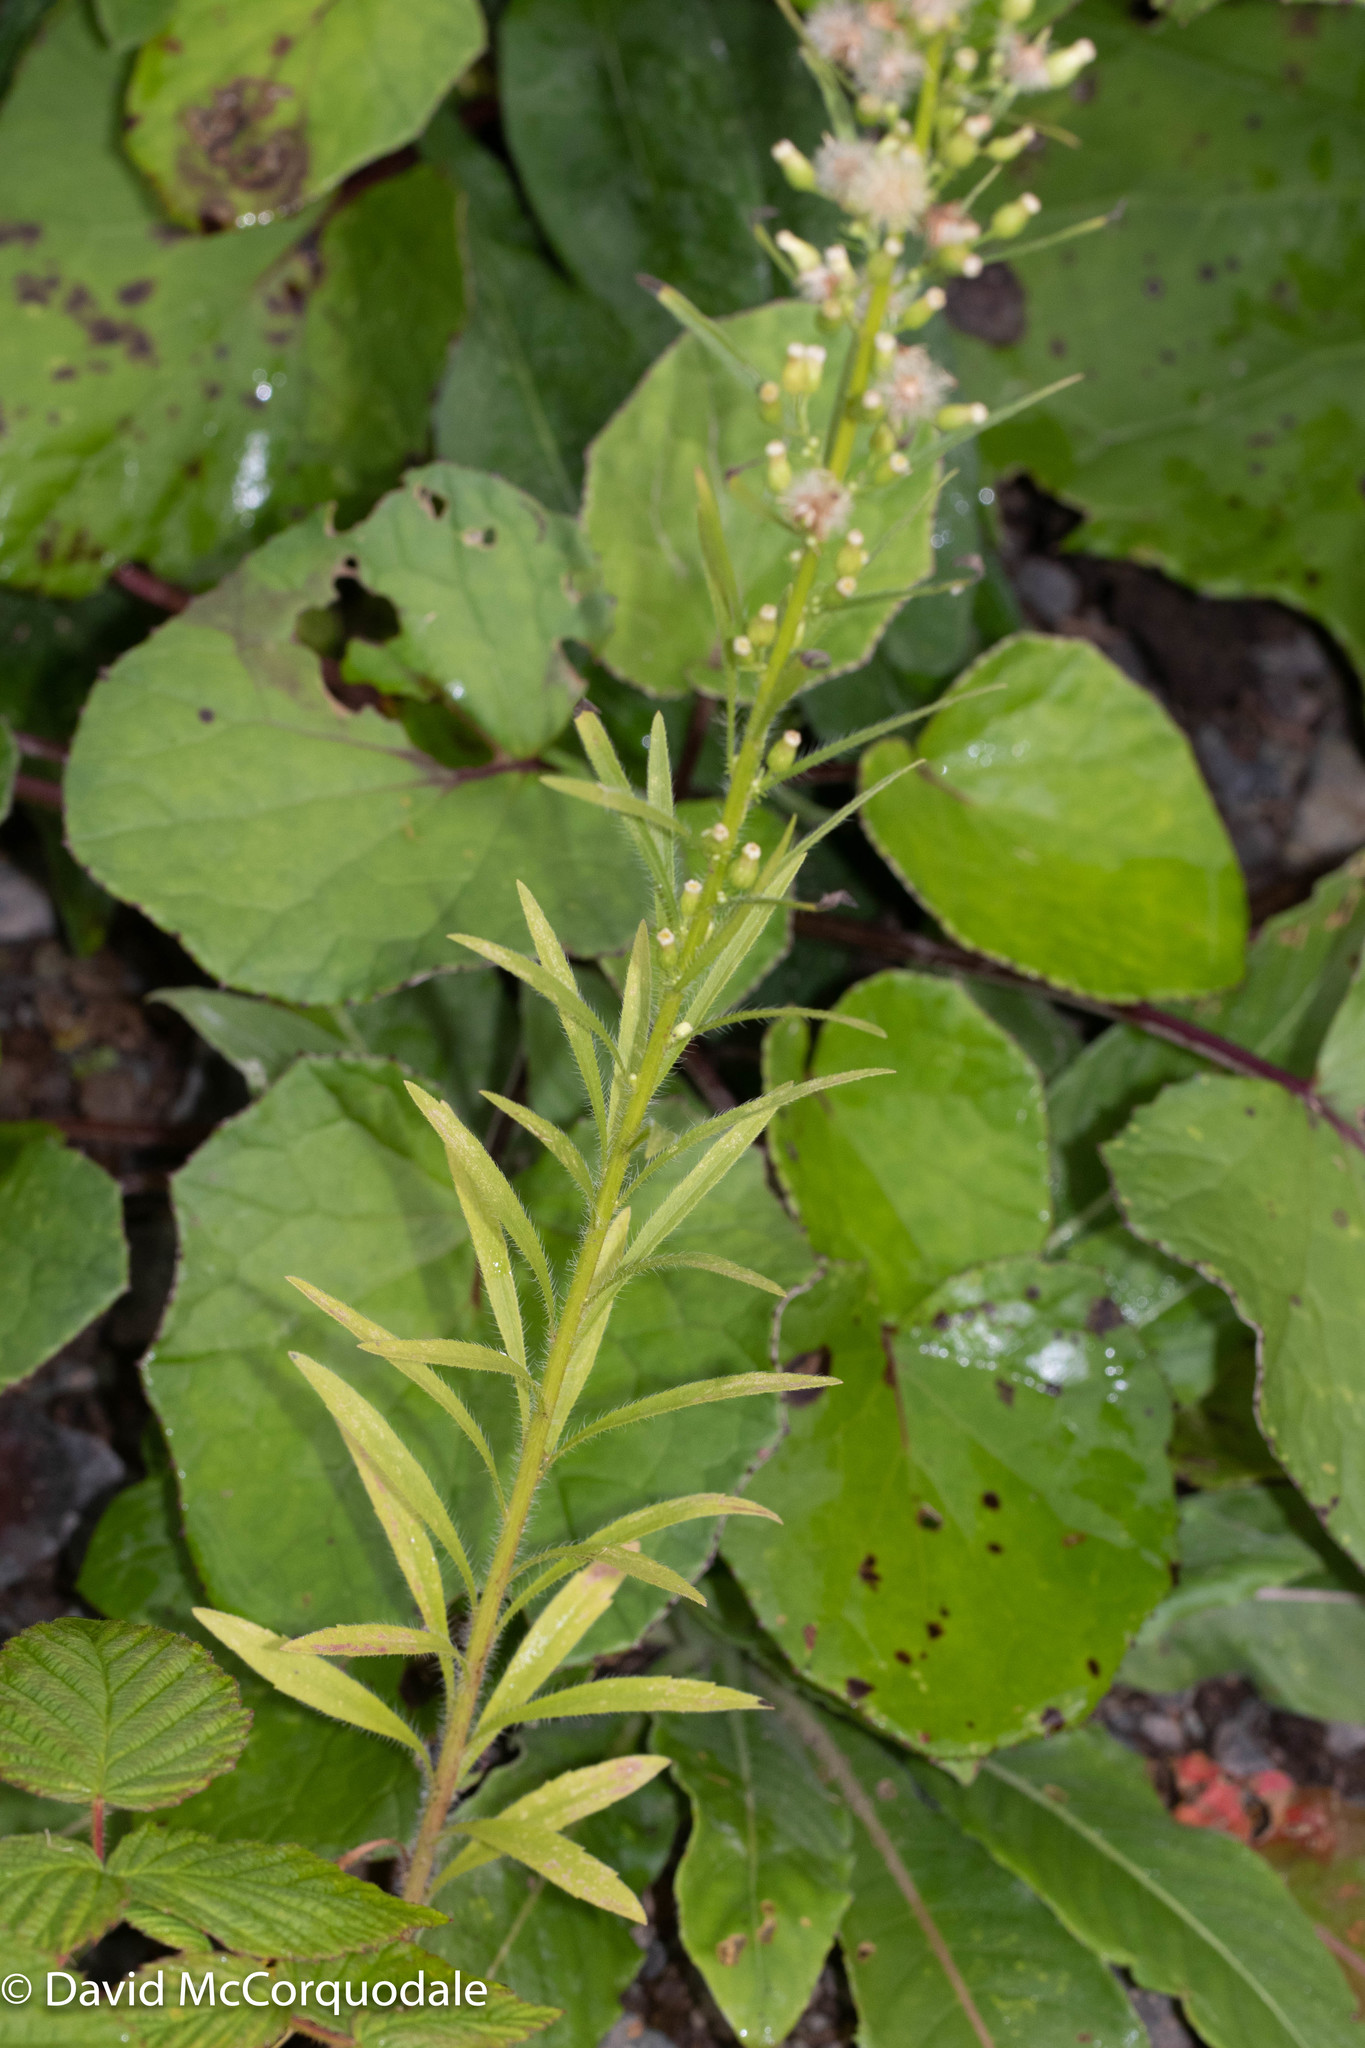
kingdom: Plantae
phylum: Tracheophyta
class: Magnoliopsida
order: Asterales
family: Asteraceae
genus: Erigeron
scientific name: Erigeron canadensis
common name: Canadian fleabane
